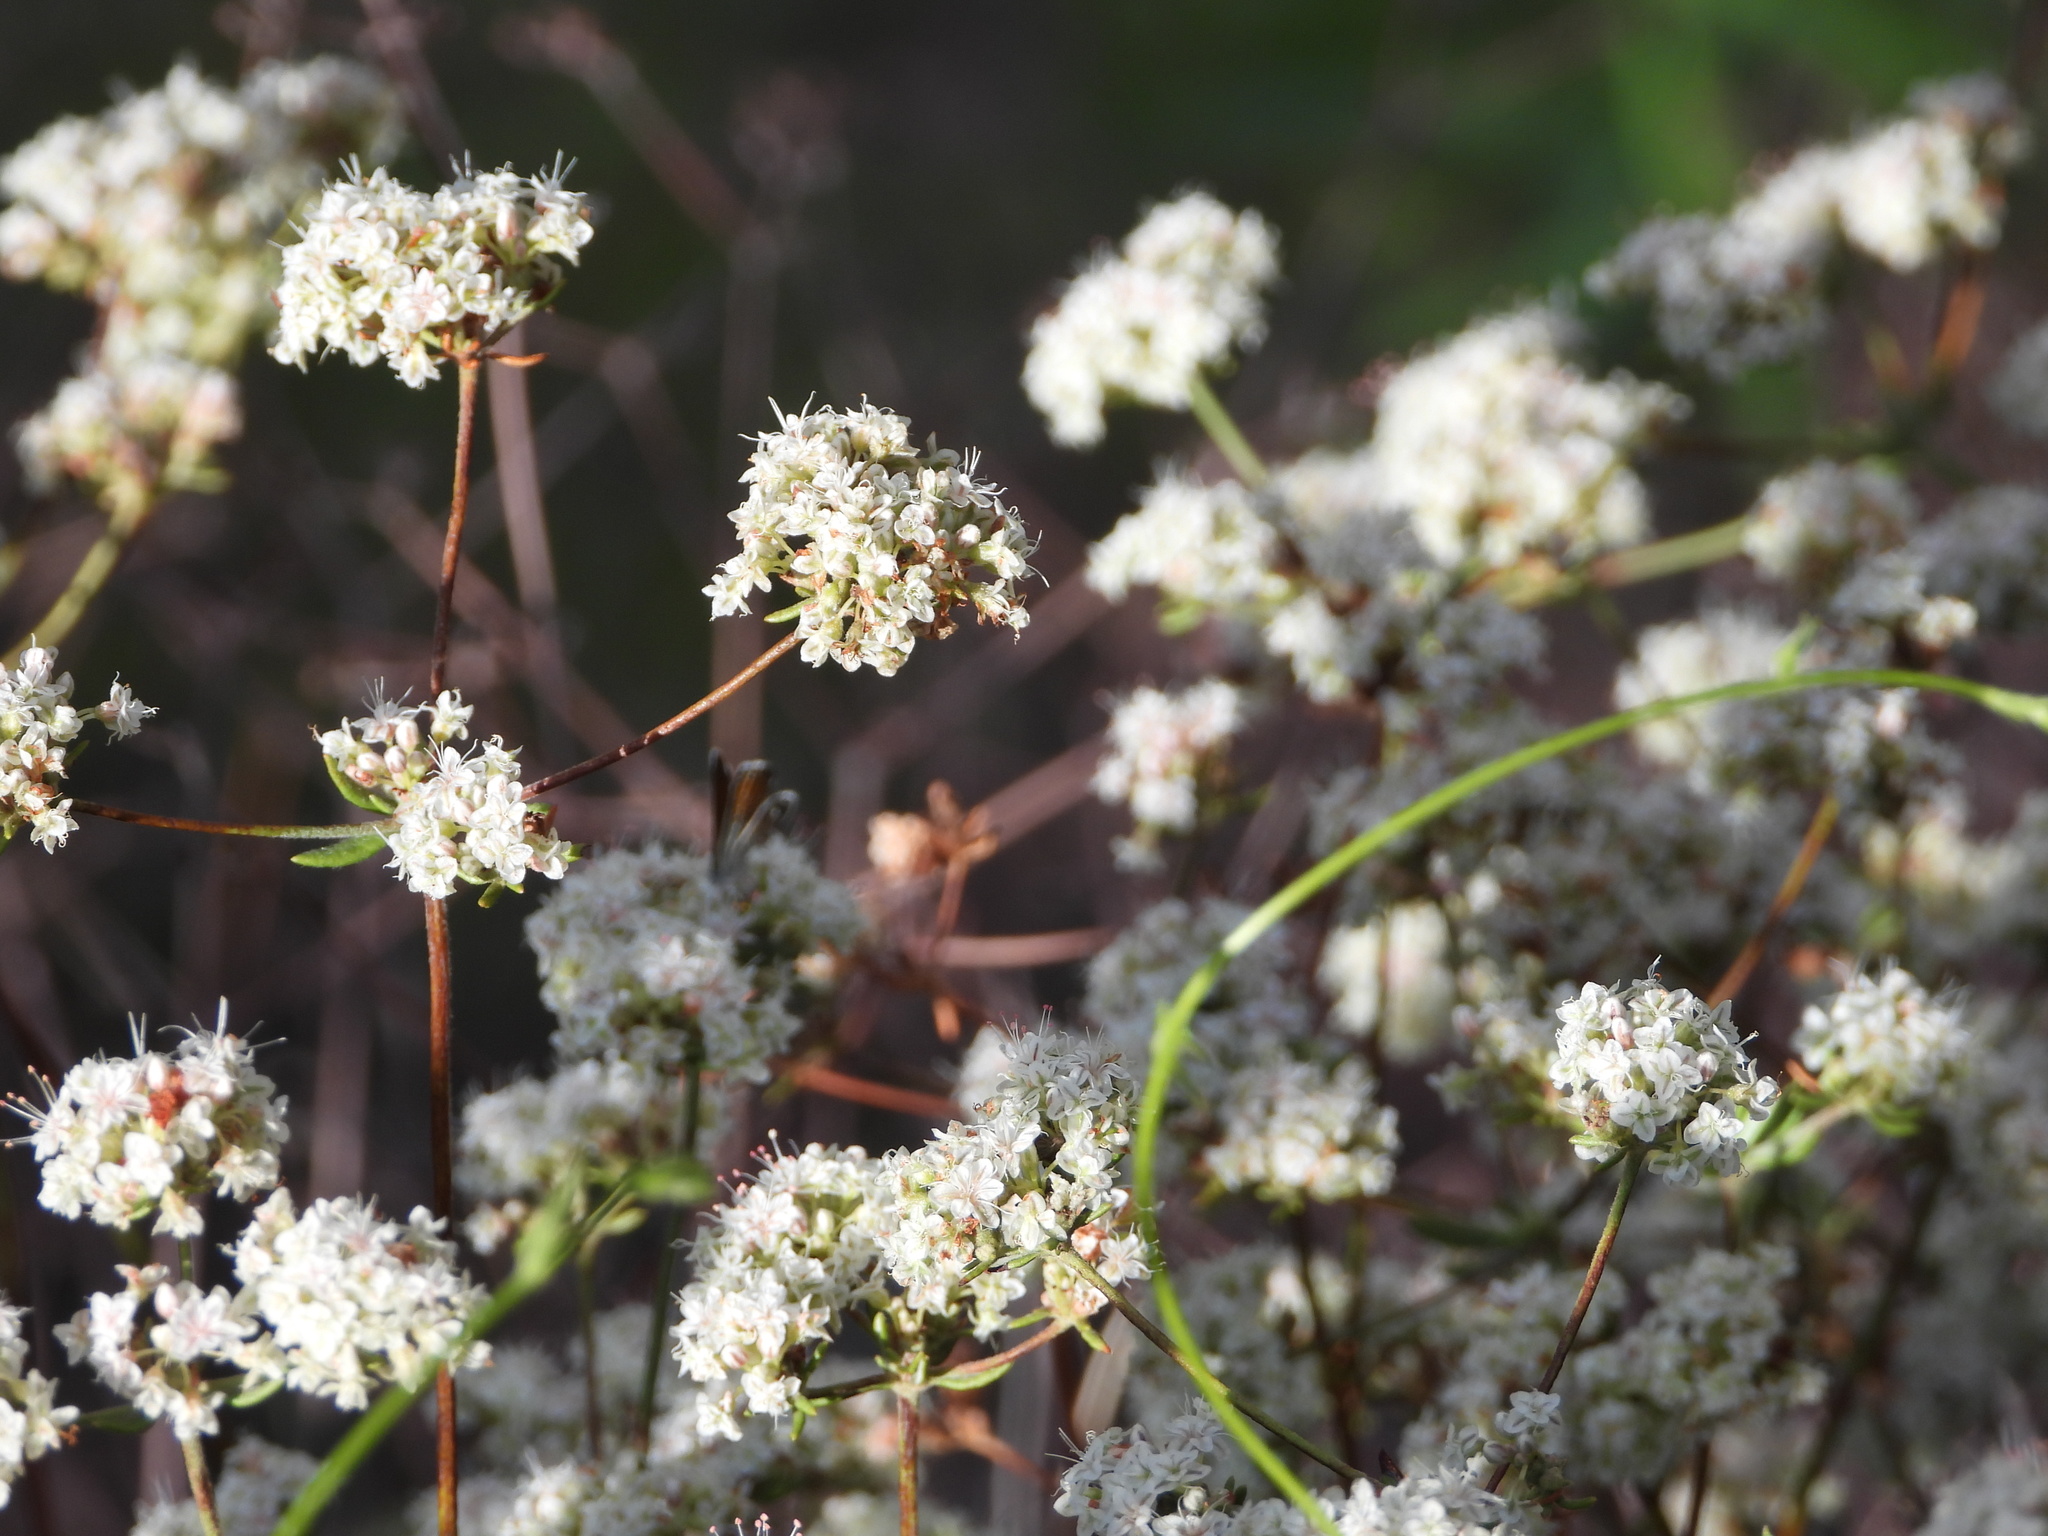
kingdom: Plantae
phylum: Tracheophyta
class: Magnoliopsida
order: Caryophyllales
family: Polygonaceae
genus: Eriogonum
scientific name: Eriogonum fasciculatum
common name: California wild buckwheat
